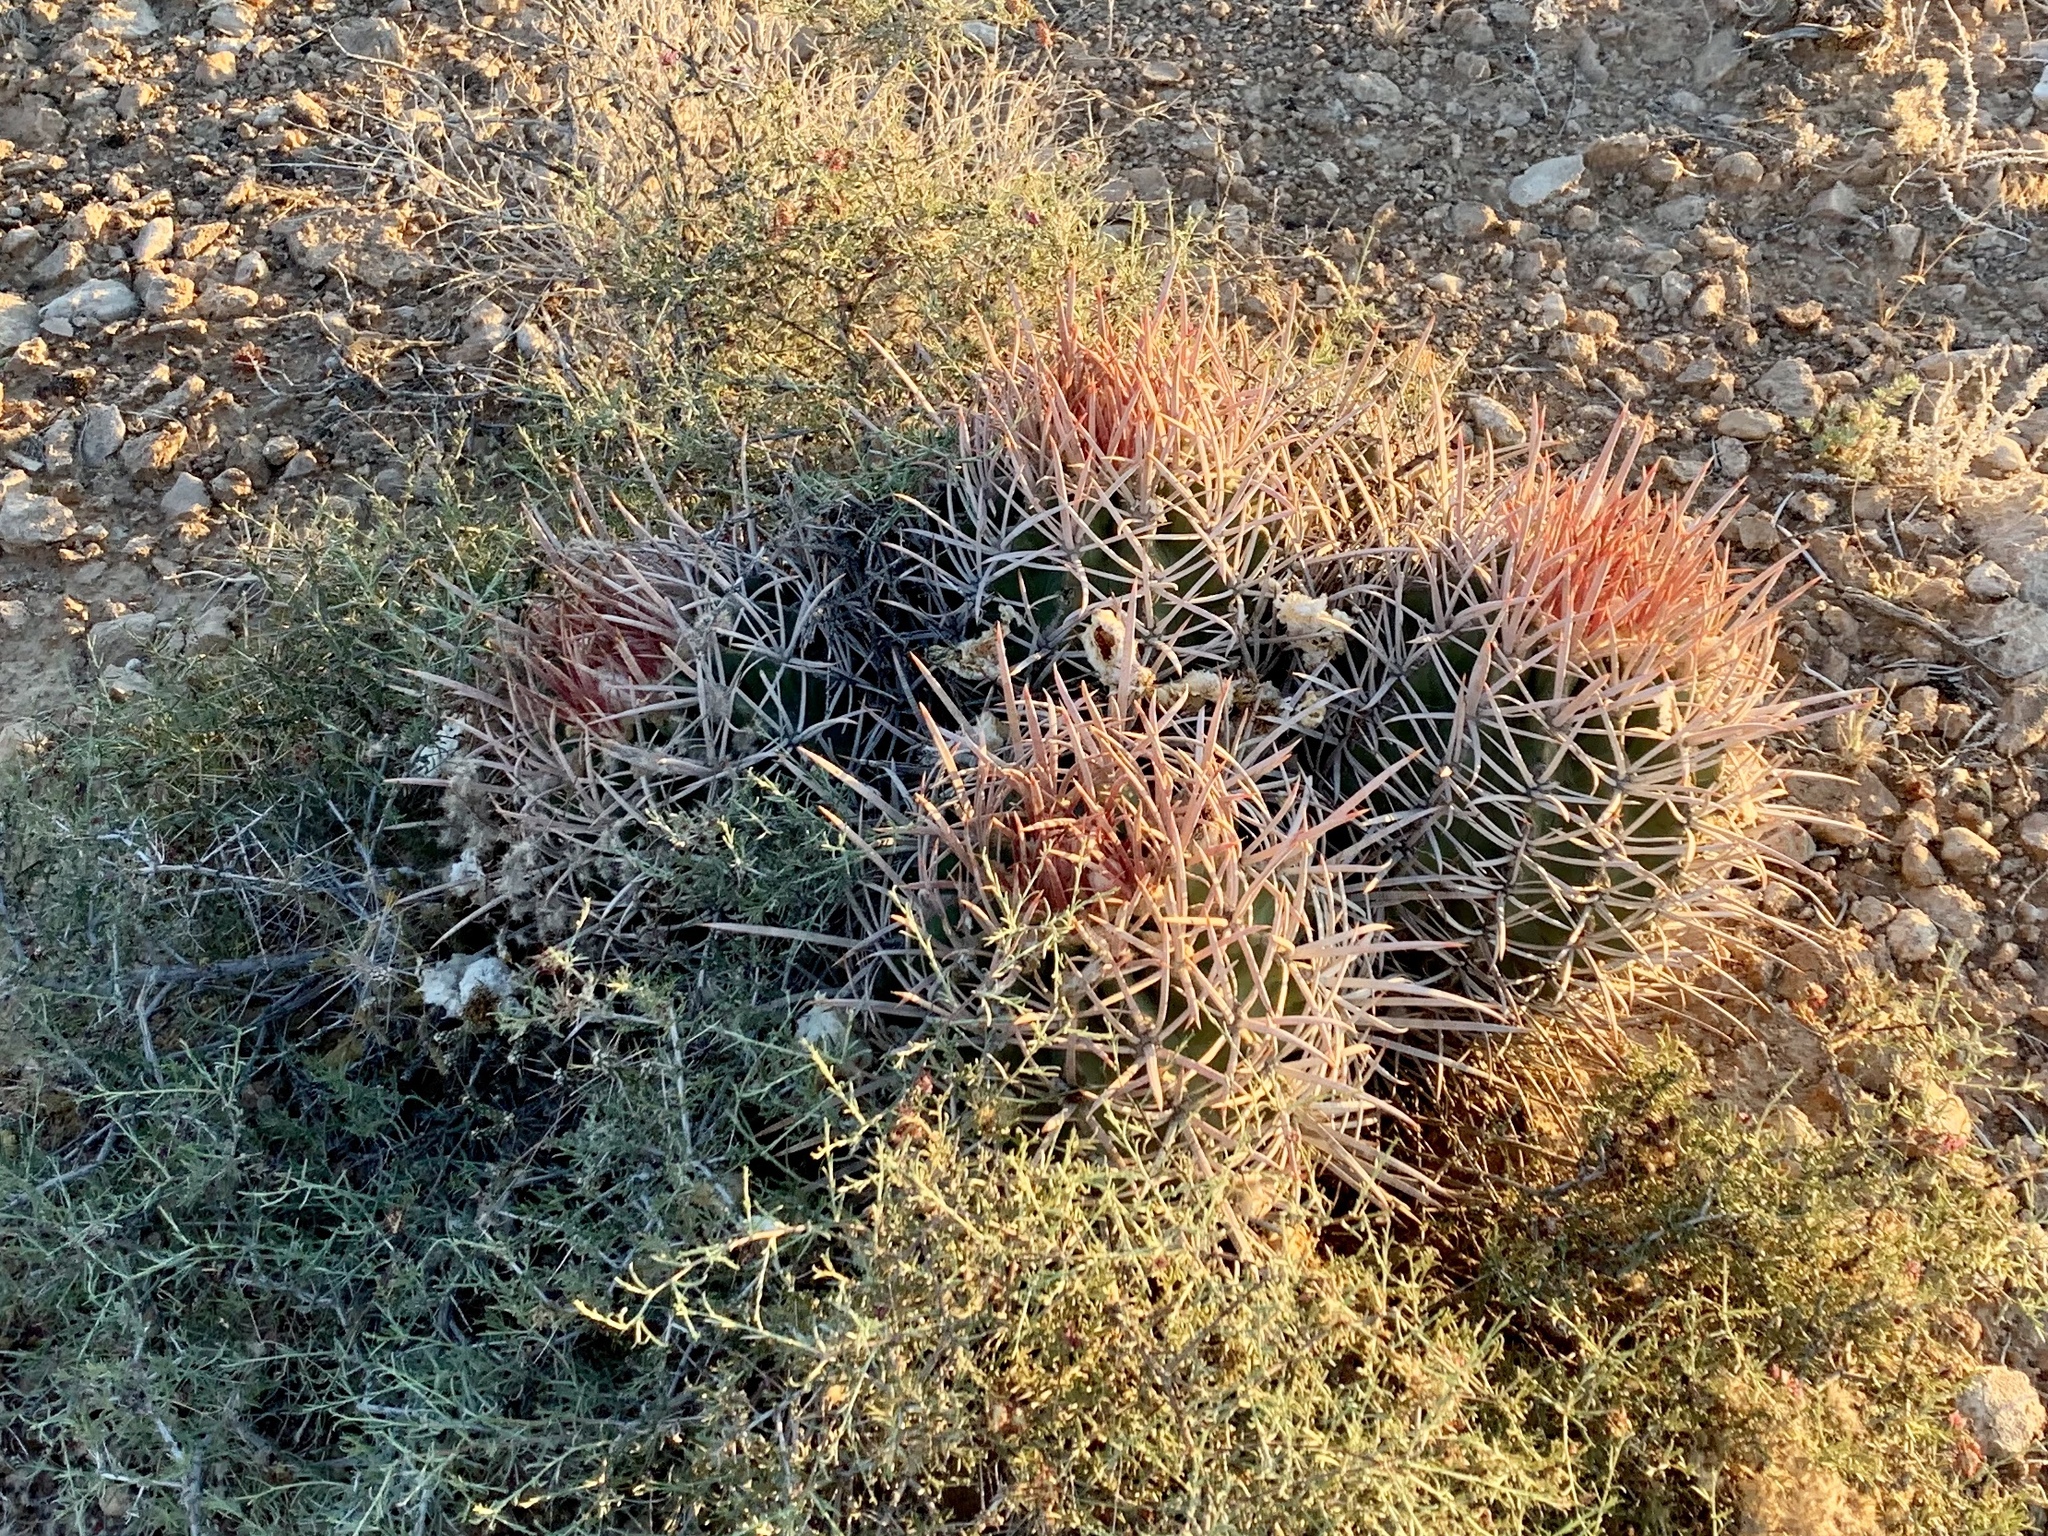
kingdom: Plantae
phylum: Tracheophyta
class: Magnoliopsida
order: Caryophyllales
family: Cactaceae
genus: Echinocactus
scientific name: Echinocactus polycephalus
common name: Cottontop cactus
